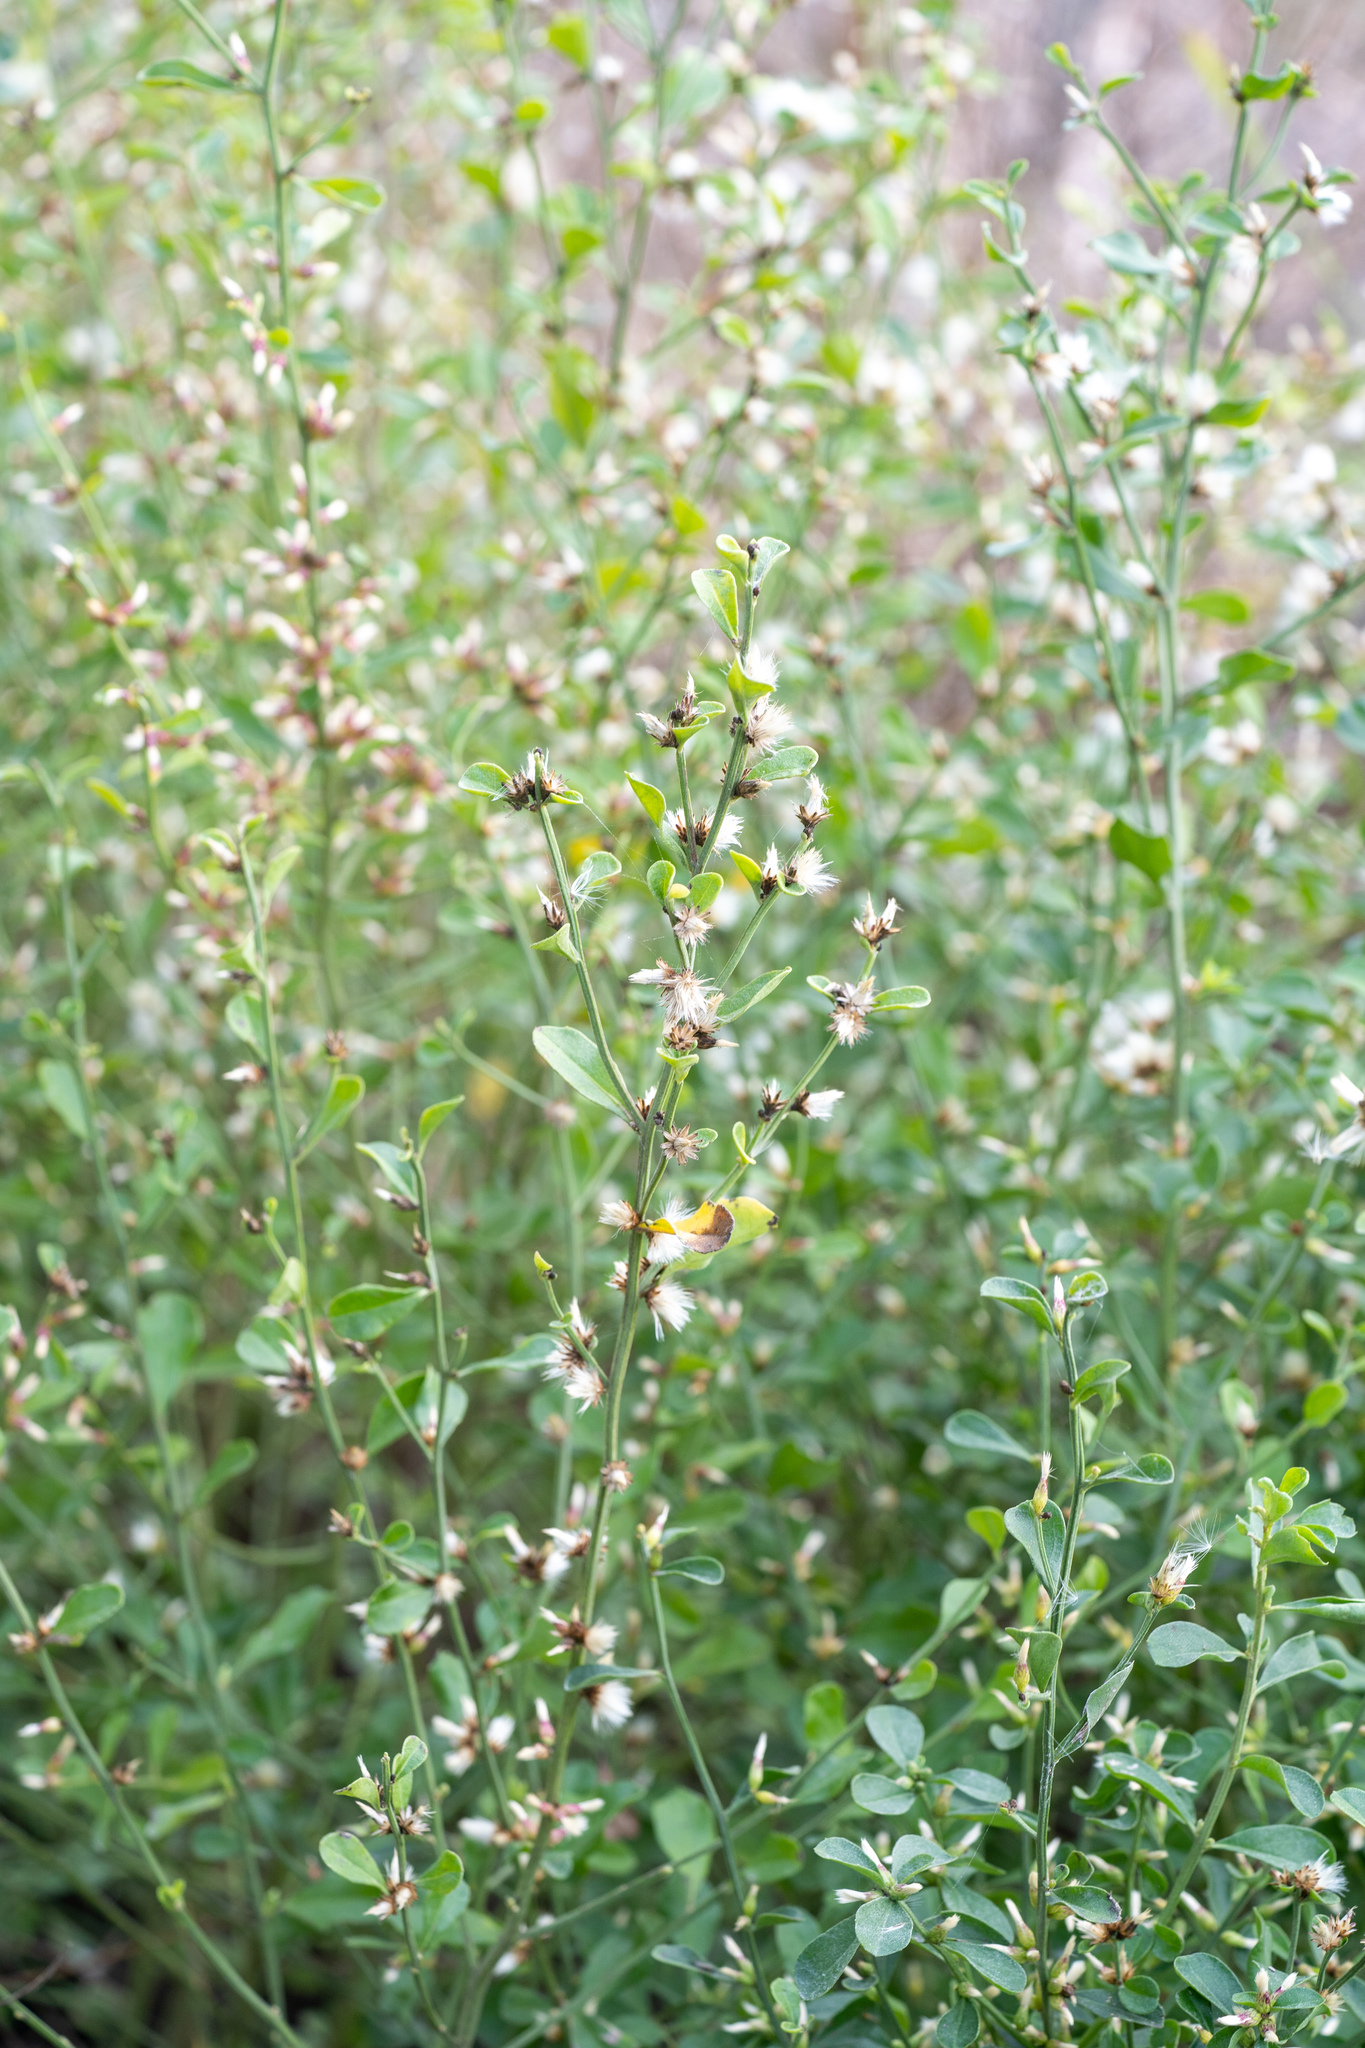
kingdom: Plantae
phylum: Tracheophyta
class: Magnoliopsida
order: Asterales
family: Asteraceae
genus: Baccharis
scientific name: Baccharis glomeruliflora
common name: Silverling groundsel bush
